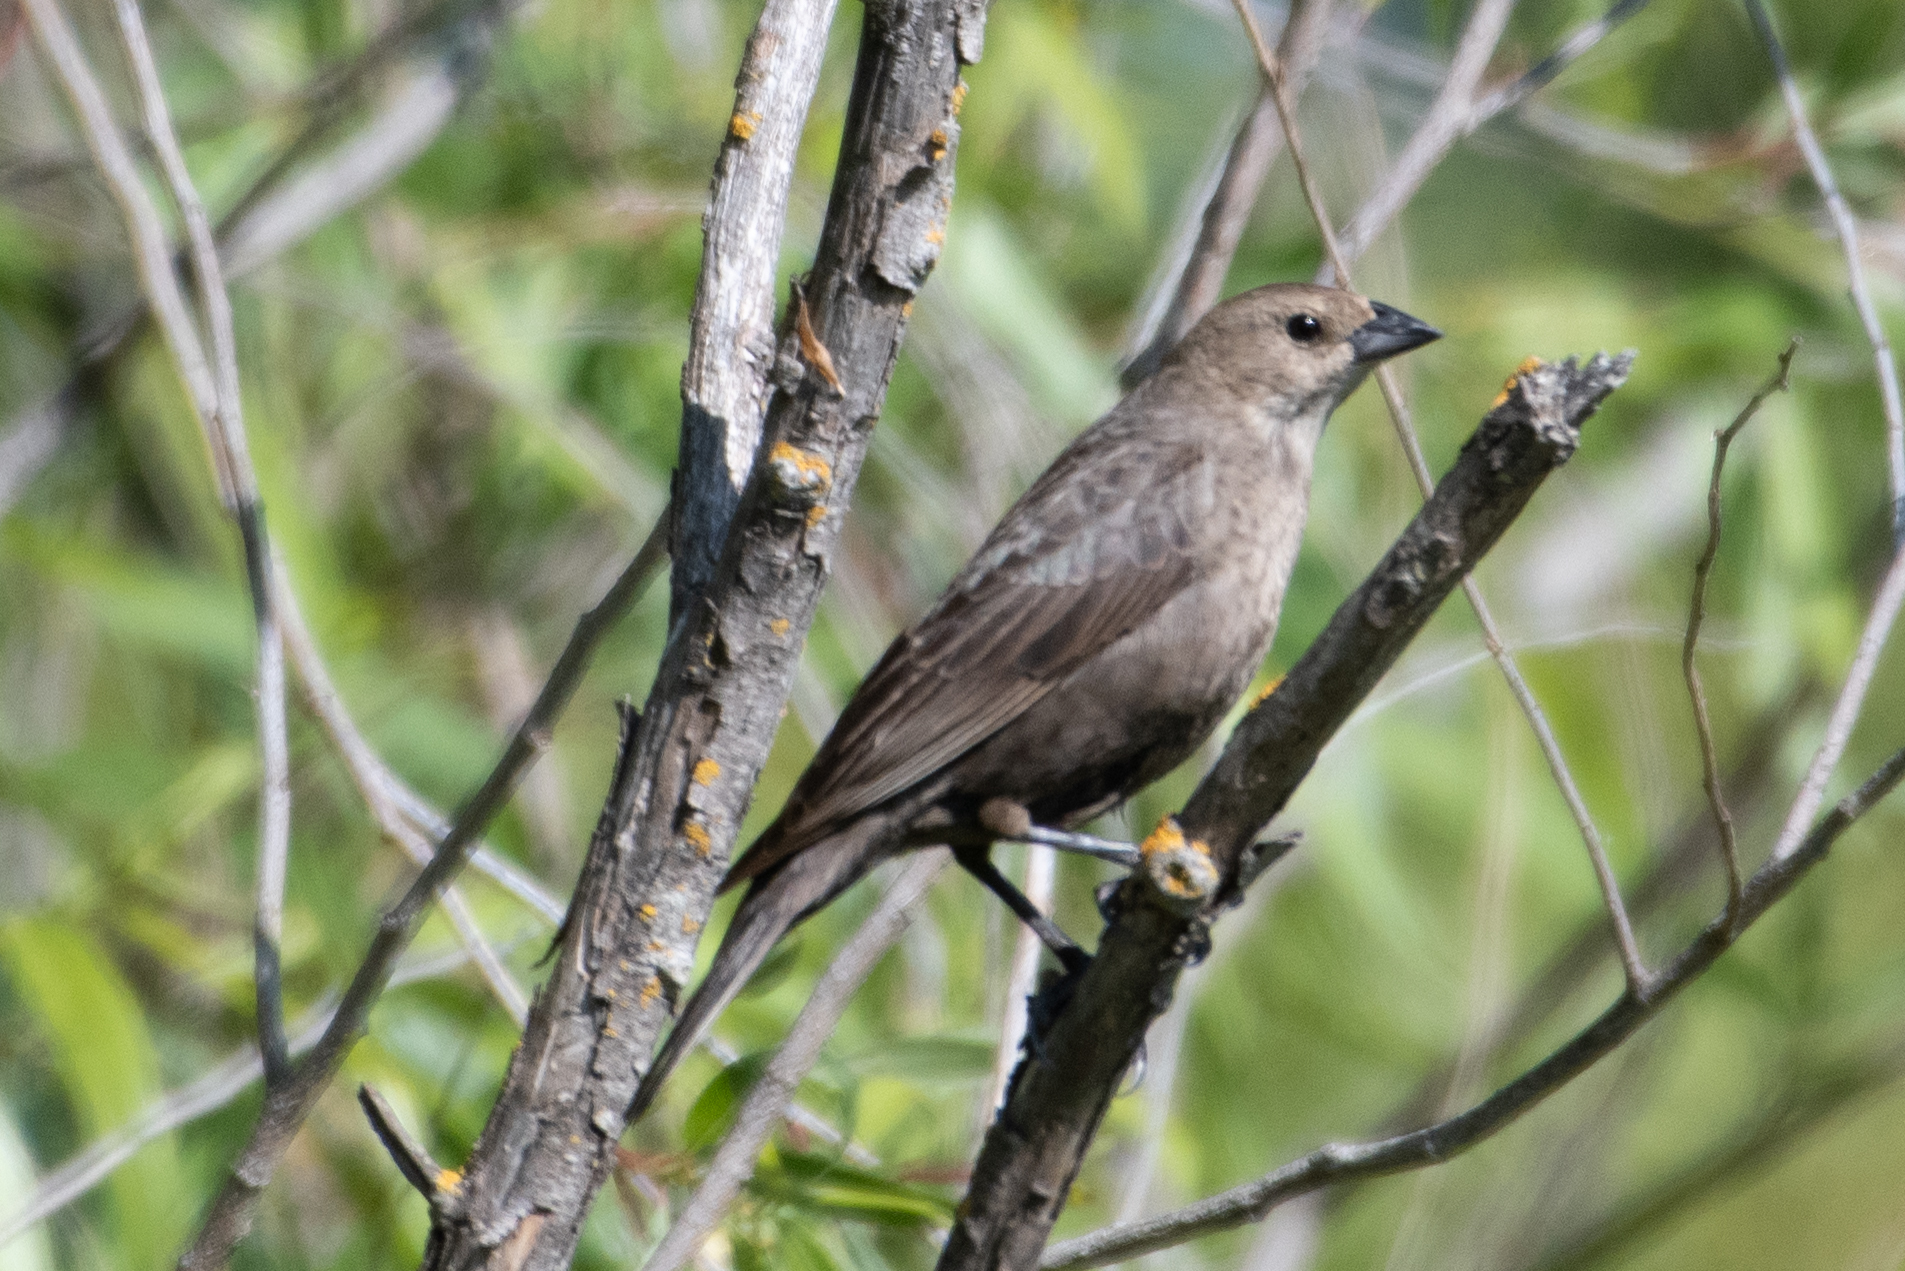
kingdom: Animalia
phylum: Chordata
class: Aves
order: Passeriformes
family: Icteridae
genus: Molothrus
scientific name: Molothrus ater
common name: Brown-headed cowbird
